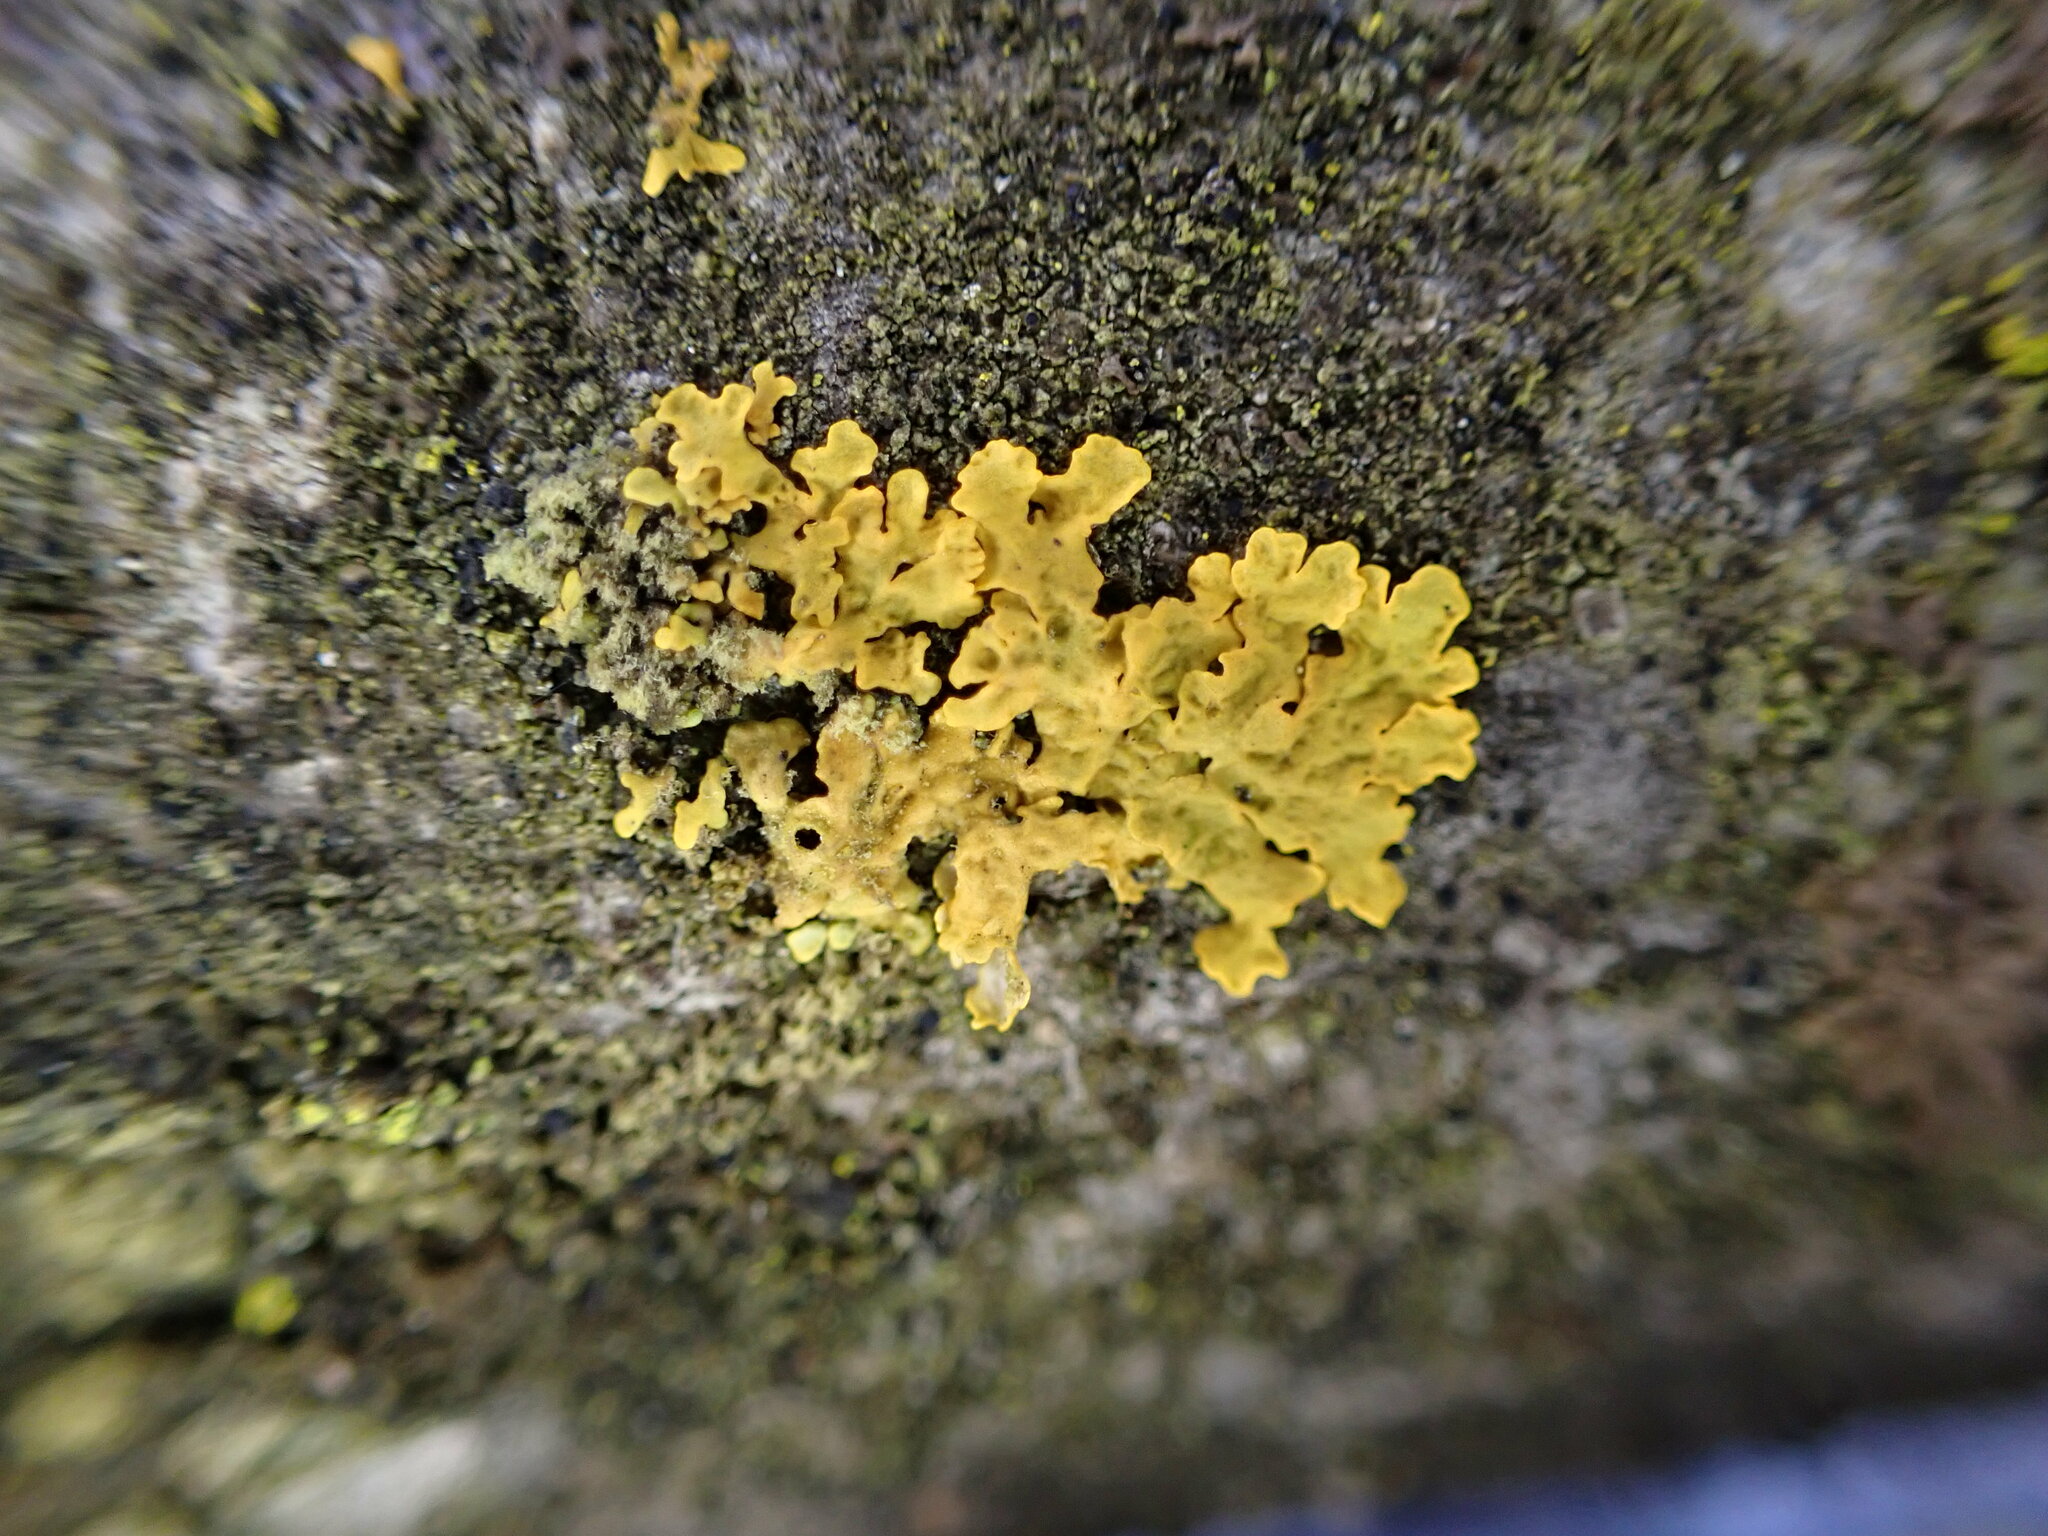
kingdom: Fungi
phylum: Ascomycota
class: Lecanoromycetes
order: Teloschistales
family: Teloschistaceae
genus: Xanthoria
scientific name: Xanthoria parietina
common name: Common orange lichen
